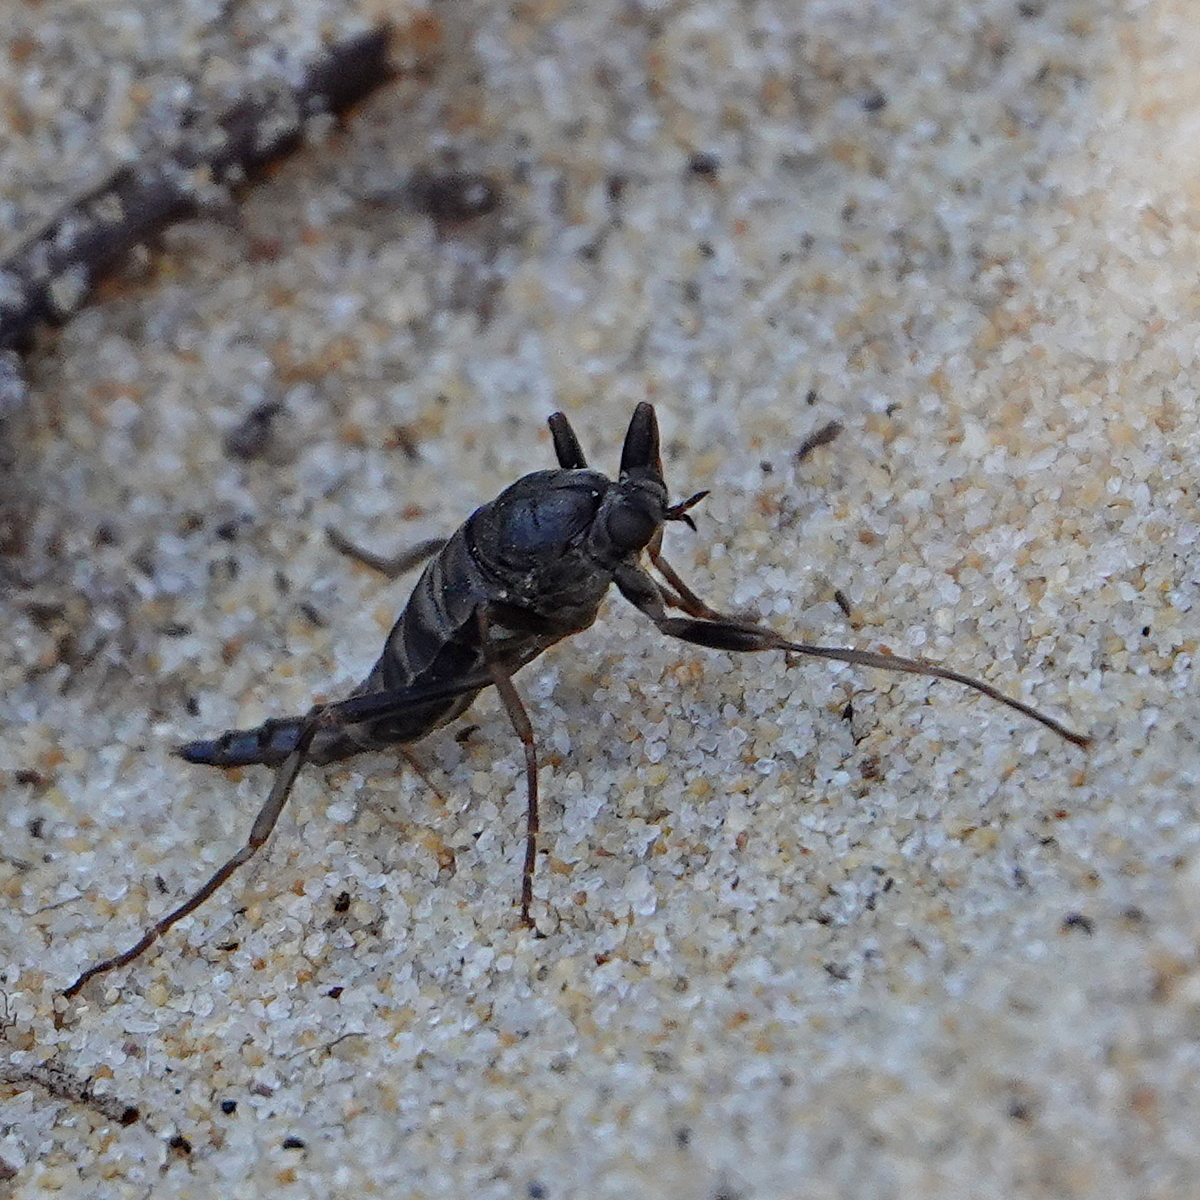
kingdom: Animalia
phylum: Arthropoda
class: Insecta
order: Diptera
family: Stratiomyidae
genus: Boreoides
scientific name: Boreoides subulatus
